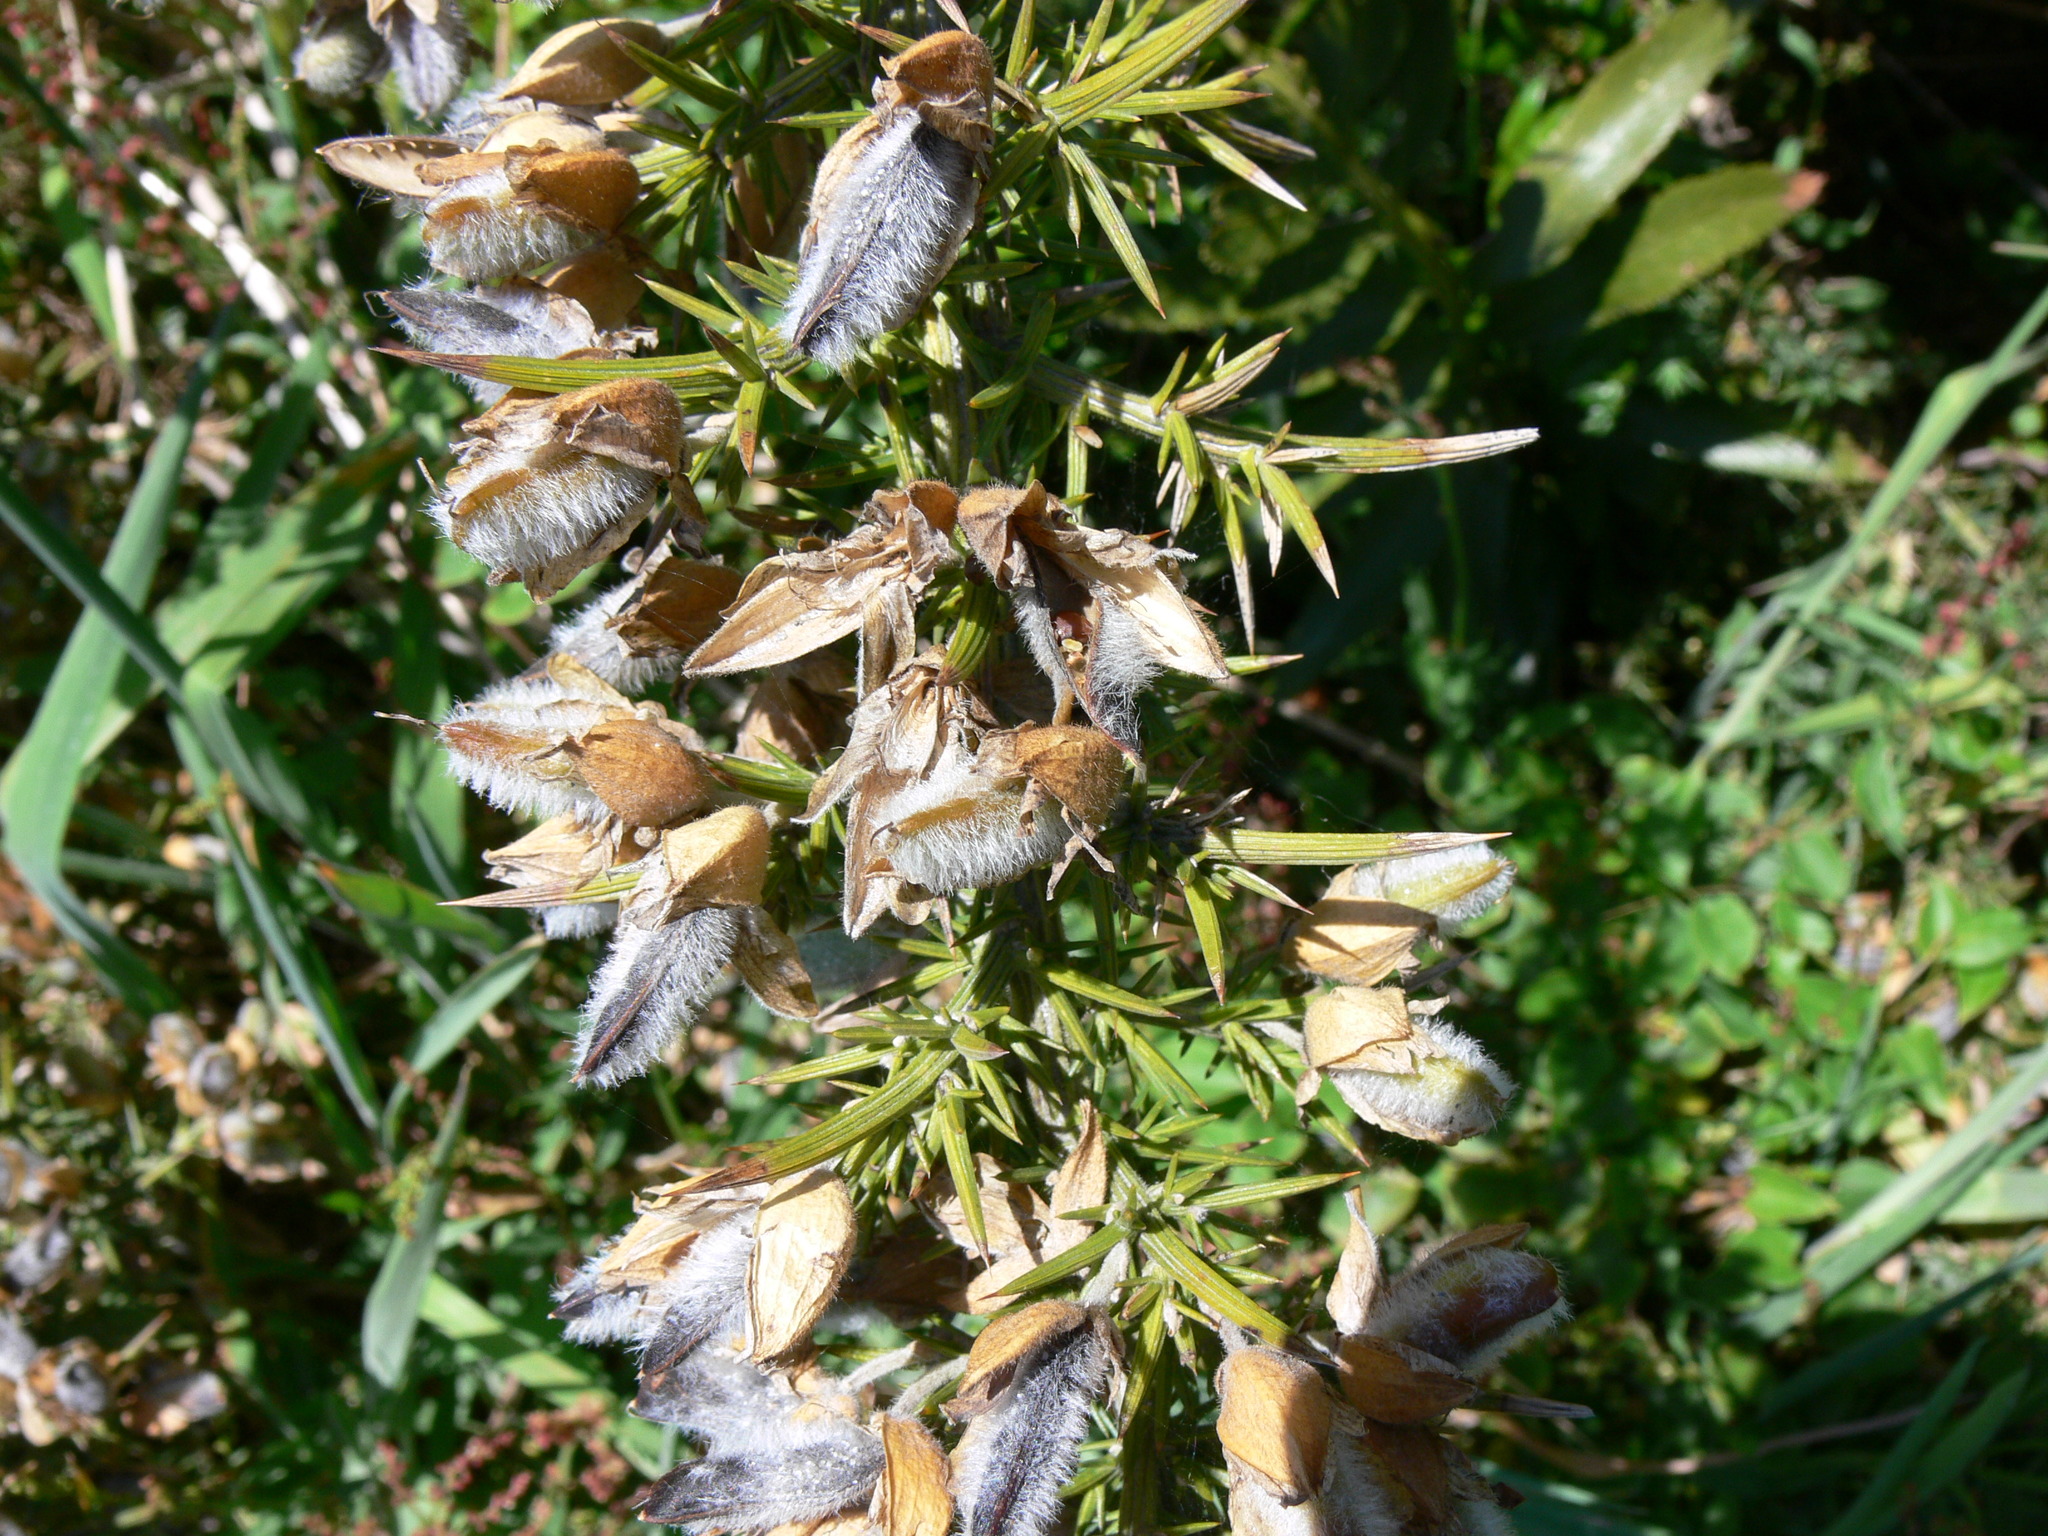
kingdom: Plantae
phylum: Tracheophyta
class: Magnoliopsida
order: Fabales
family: Fabaceae
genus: Ulex
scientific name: Ulex europaeus
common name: Common gorse
